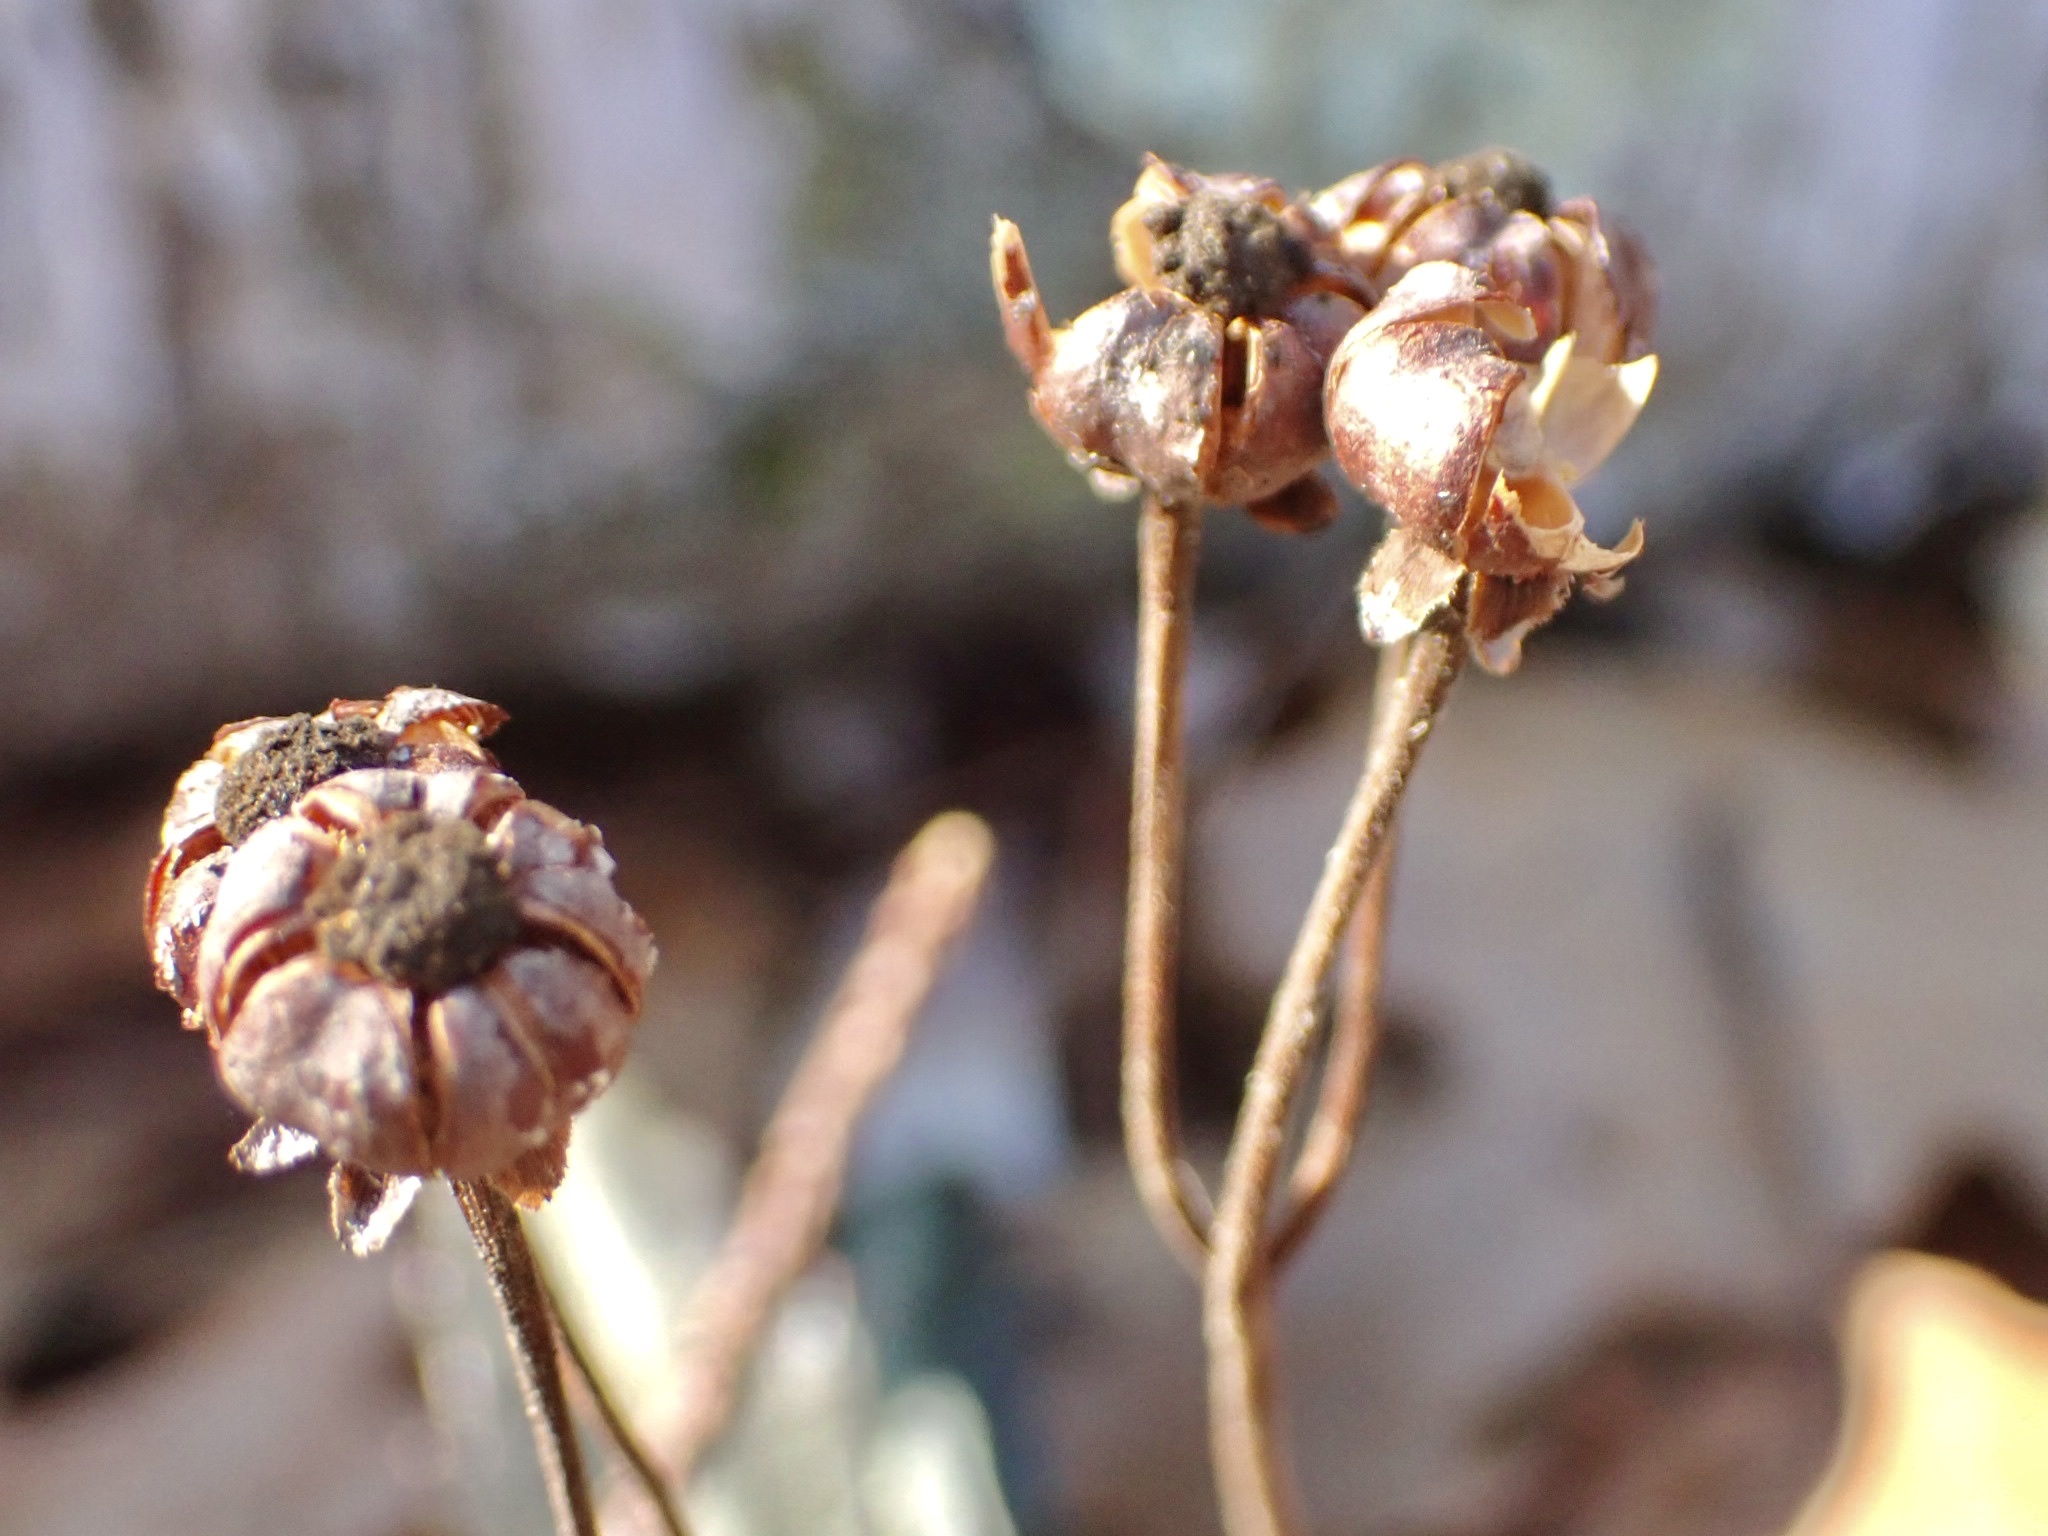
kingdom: Plantae
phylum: Tracheophyta
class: Magnoliopsida
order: Ericales
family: Ericaceae
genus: Chimaphila
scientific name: Chimaphila maculata
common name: Spotted pipsissewa
